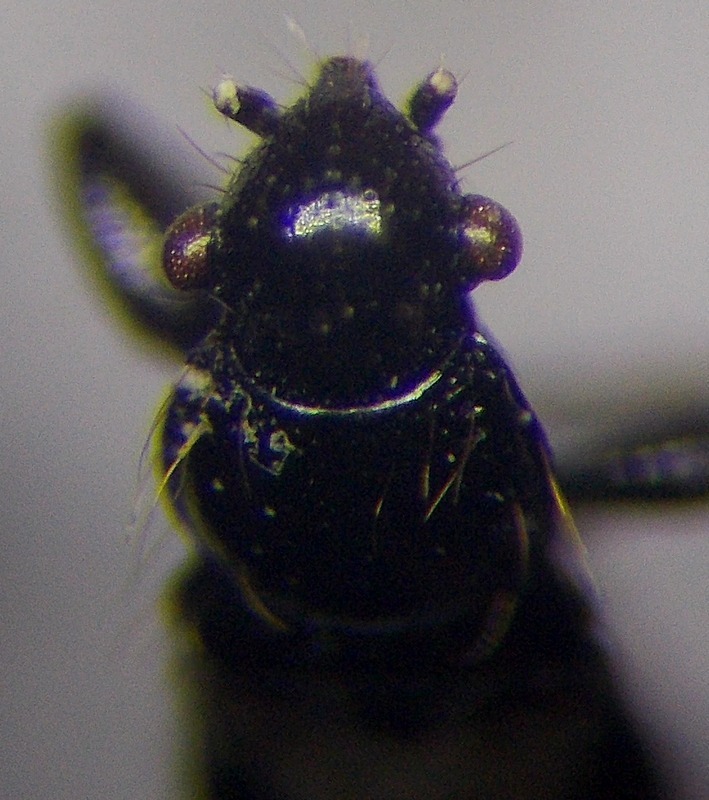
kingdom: Animalia
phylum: Arthropoda
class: Insecta
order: Hemiptera
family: Rhyparochromidae
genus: Parapolycrates
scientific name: Parapolycrates ciliatus
